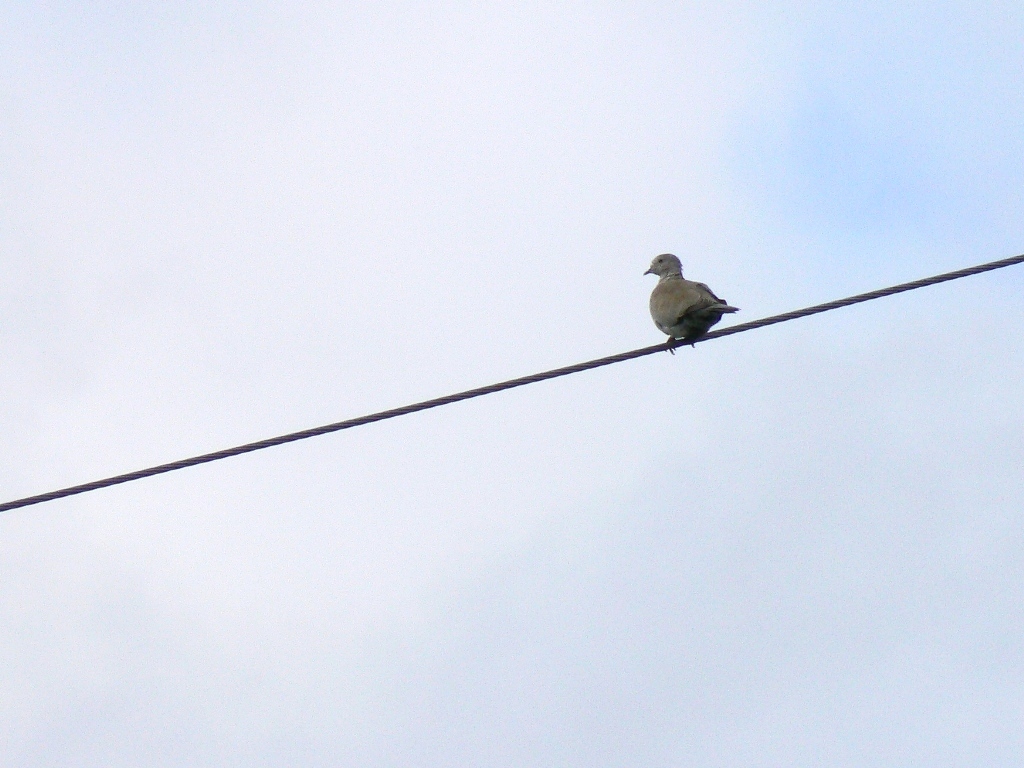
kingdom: Animalia
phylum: Chordata
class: Aves
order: Columbiformes
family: Columbidae
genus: Streptopelia
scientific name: Streptopelia decaocto
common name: Eurasian collared dove
